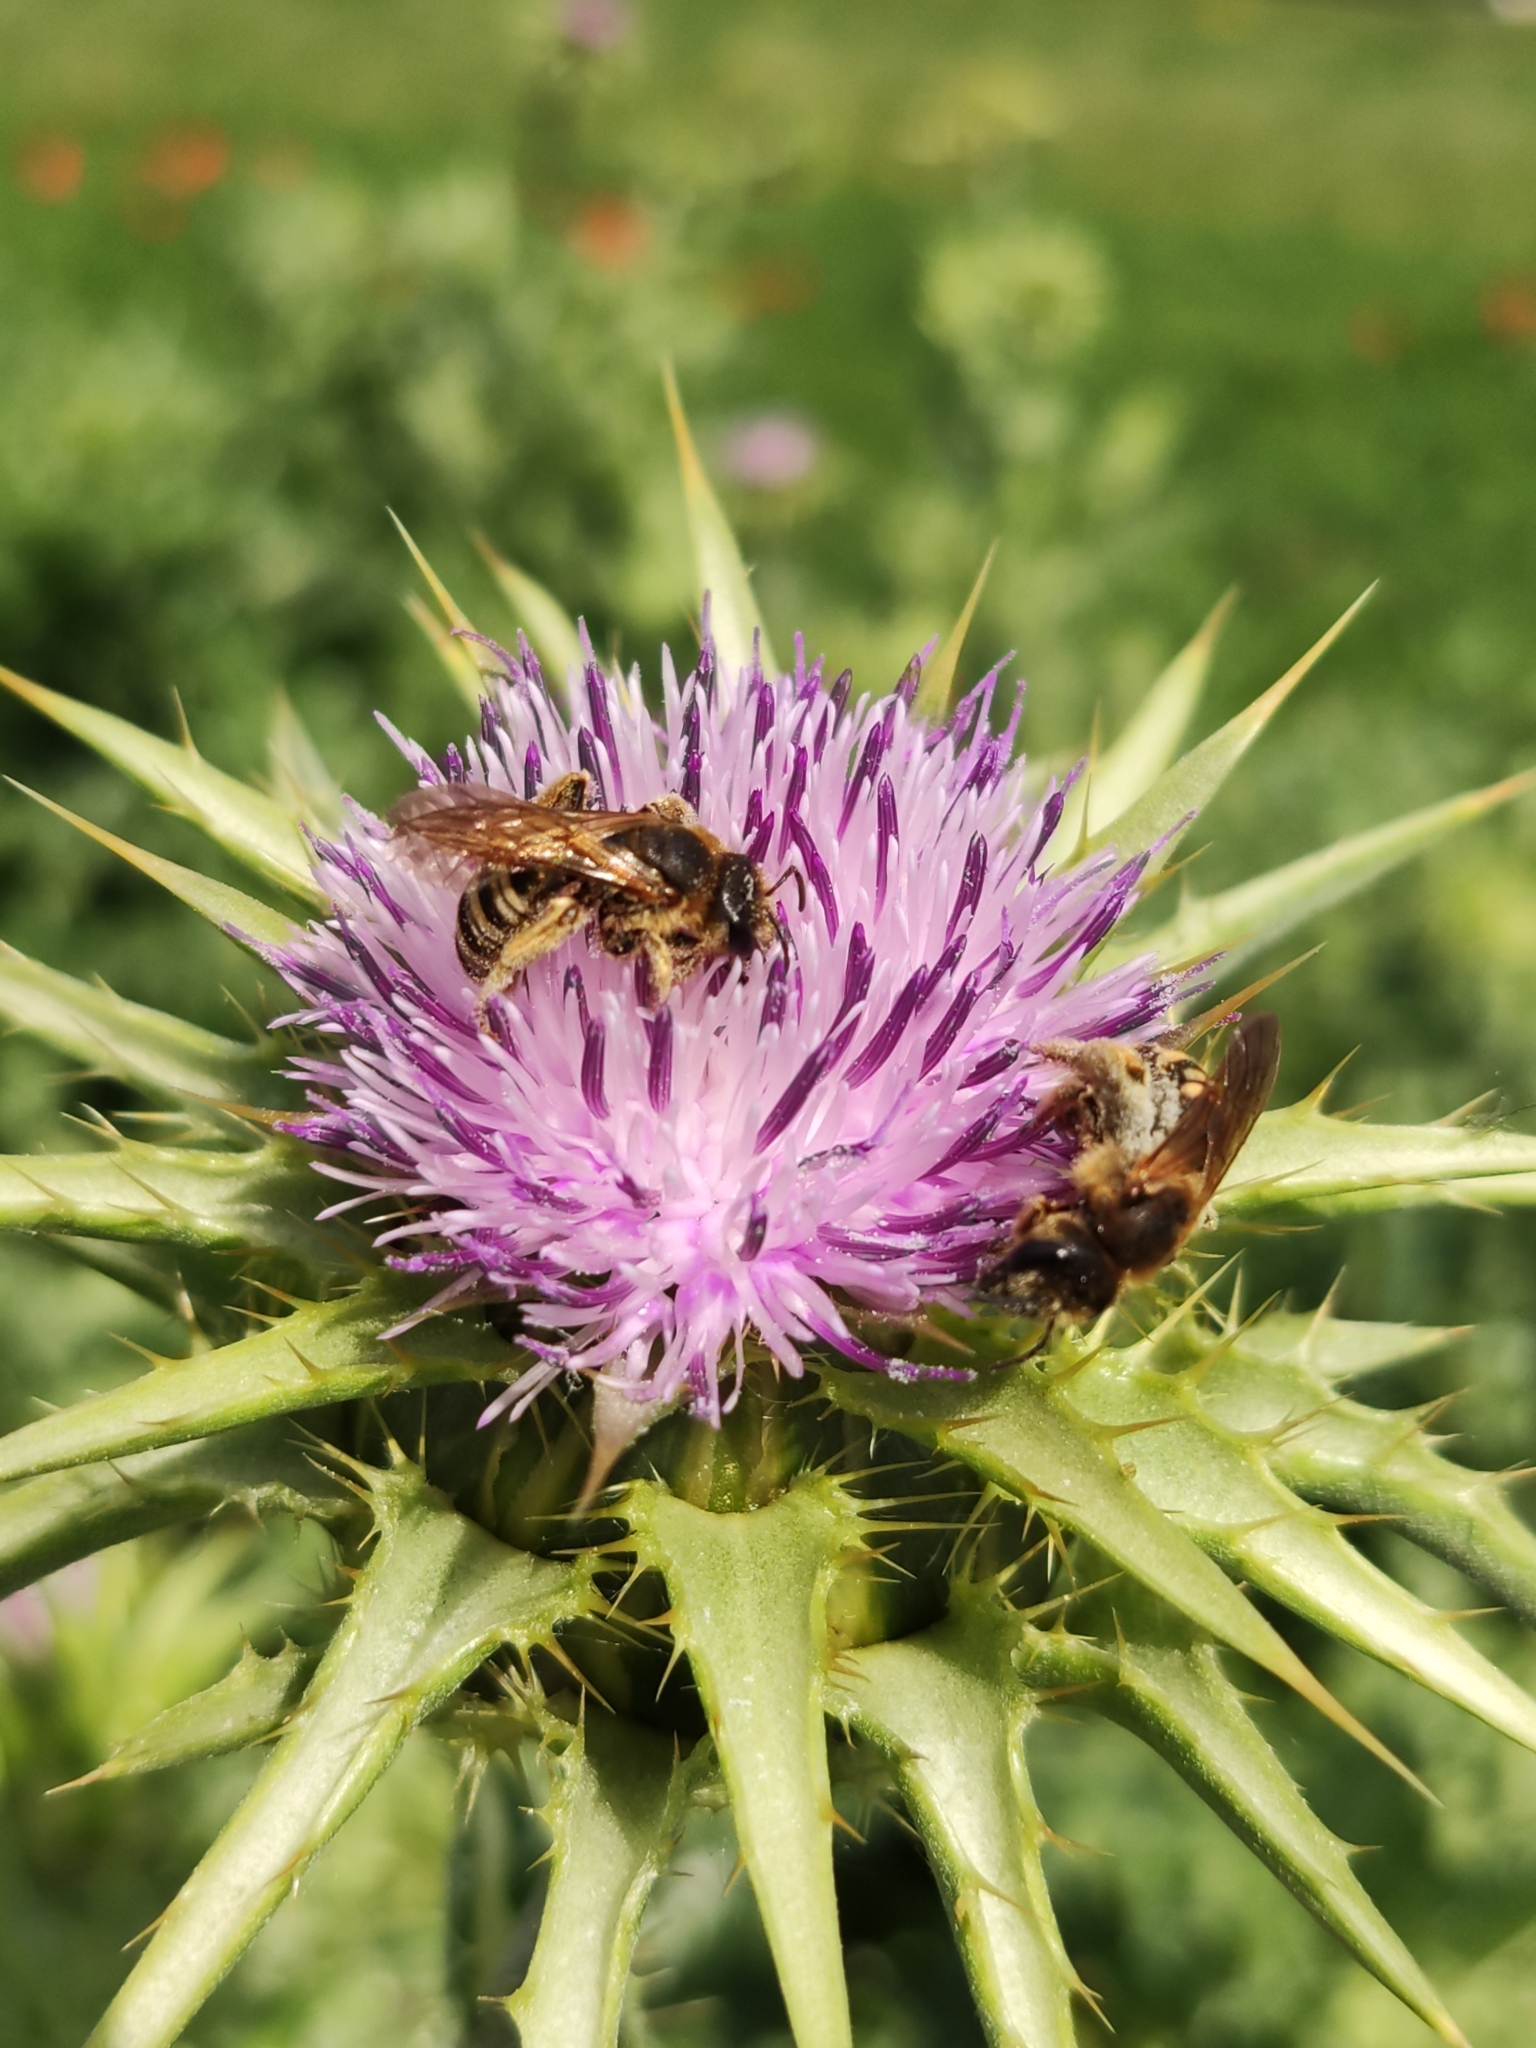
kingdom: Animalia
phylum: Arthropoda
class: Insecta
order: Hymenoptera
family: Halictidae
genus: Halictus
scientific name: Halictus scabiosae
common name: Great banded furrow bee
